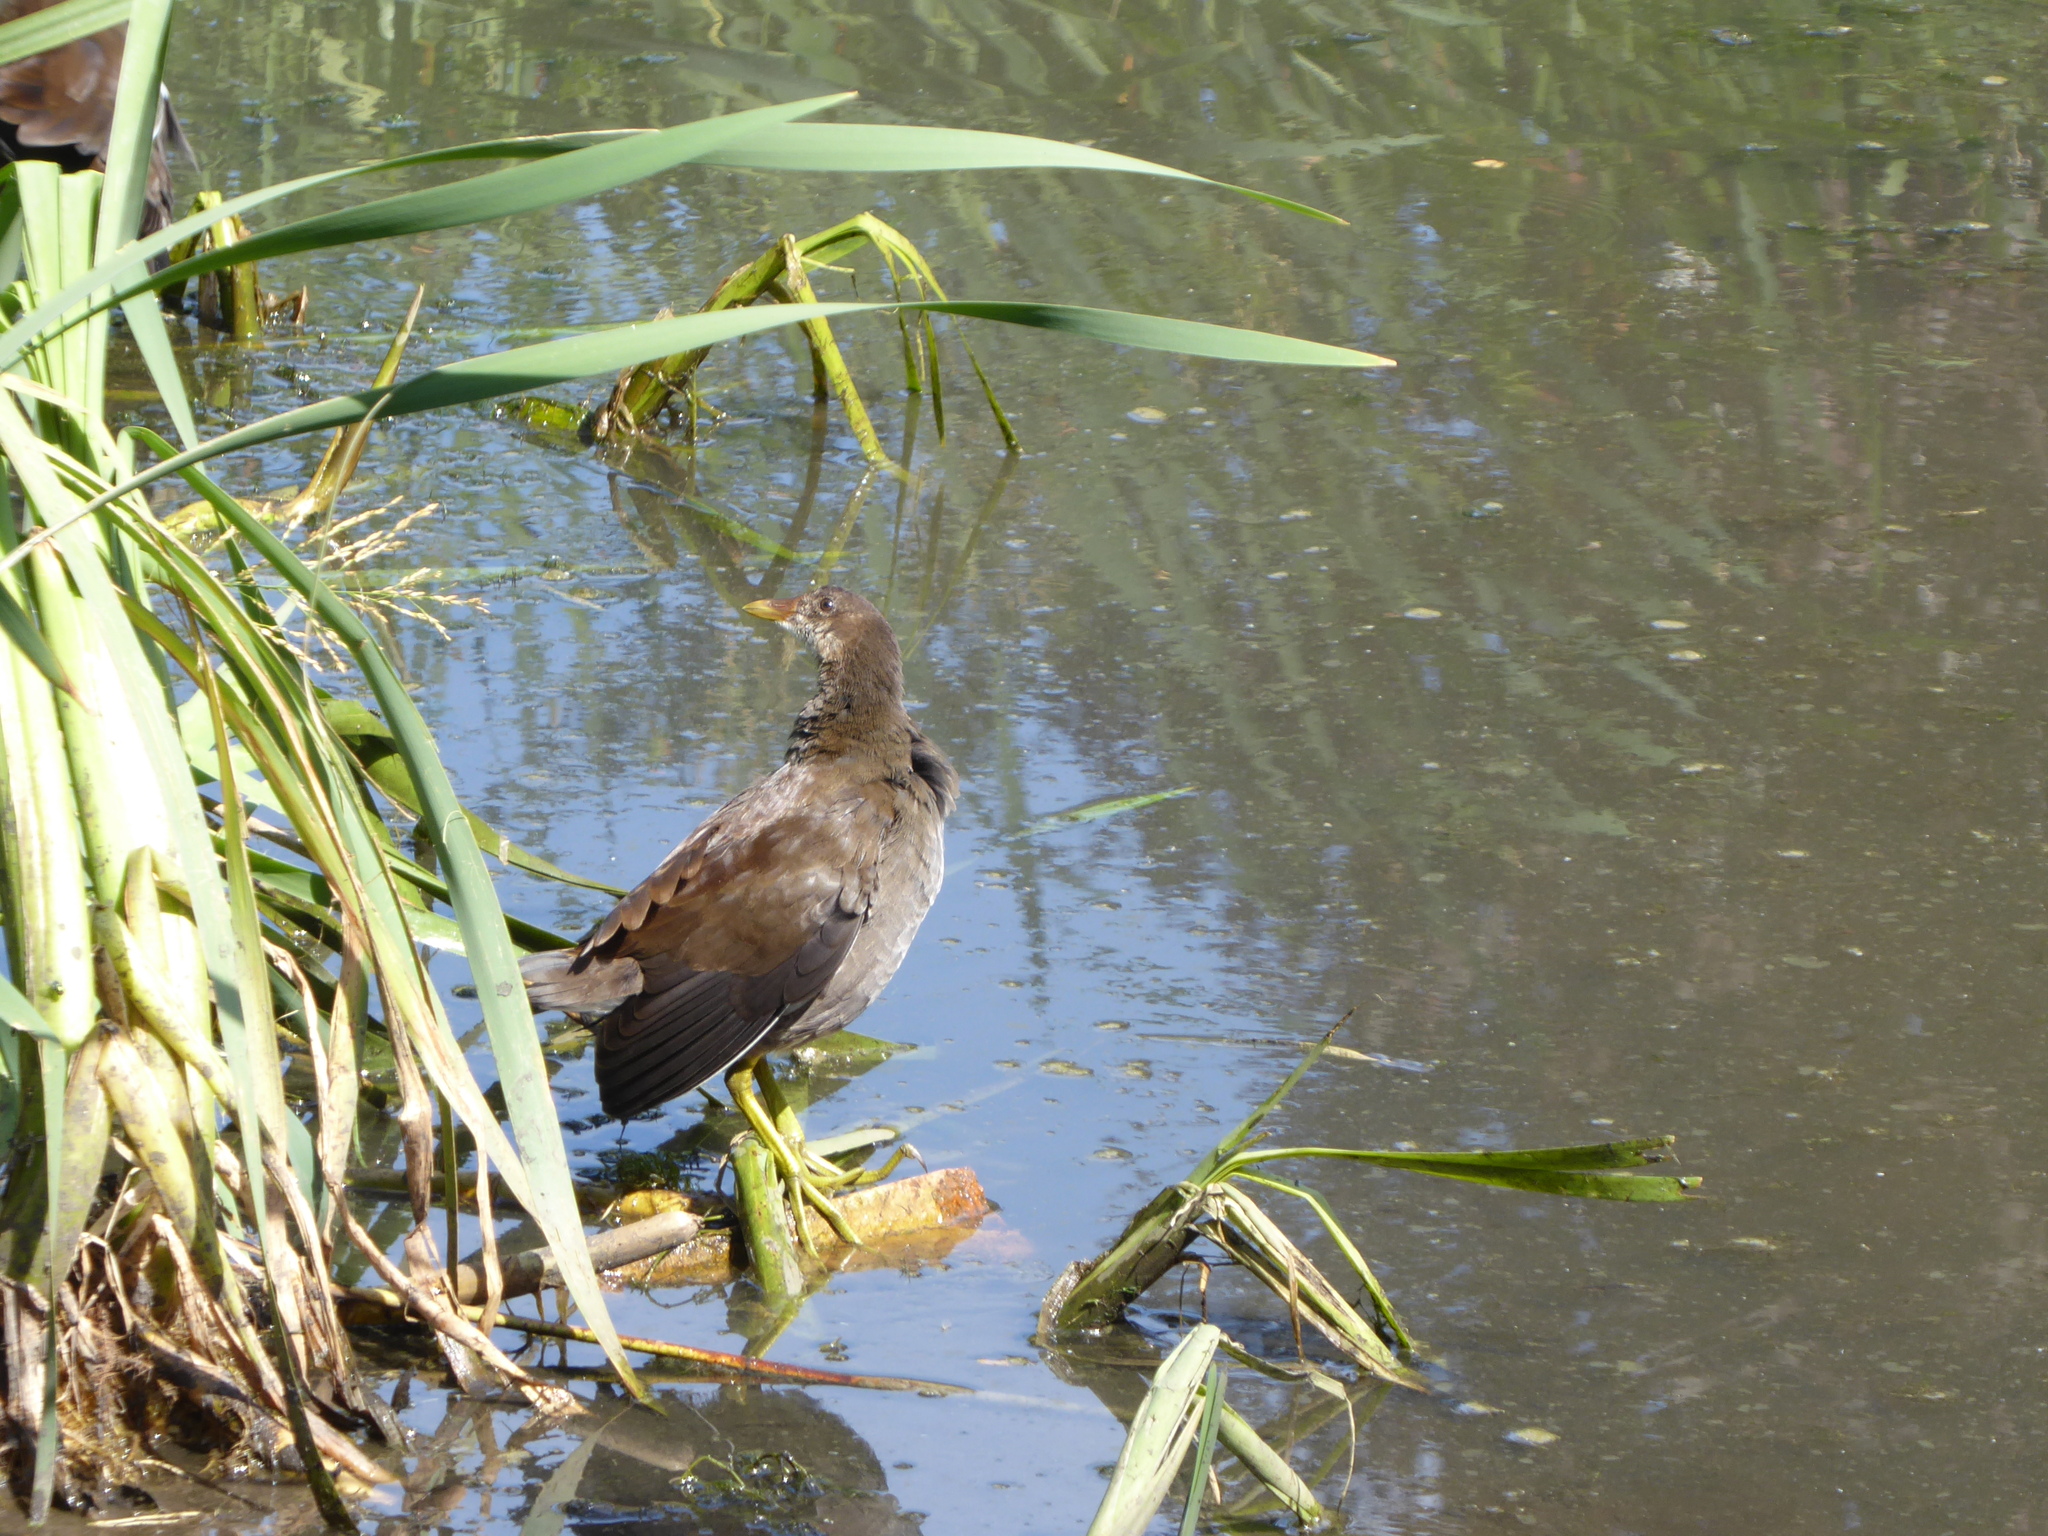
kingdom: Animalia
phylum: Chordata
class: Aves
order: Gruiformes
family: Rallidae
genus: Gallinula
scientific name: Gallinula chloropus
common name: Common moorhen
